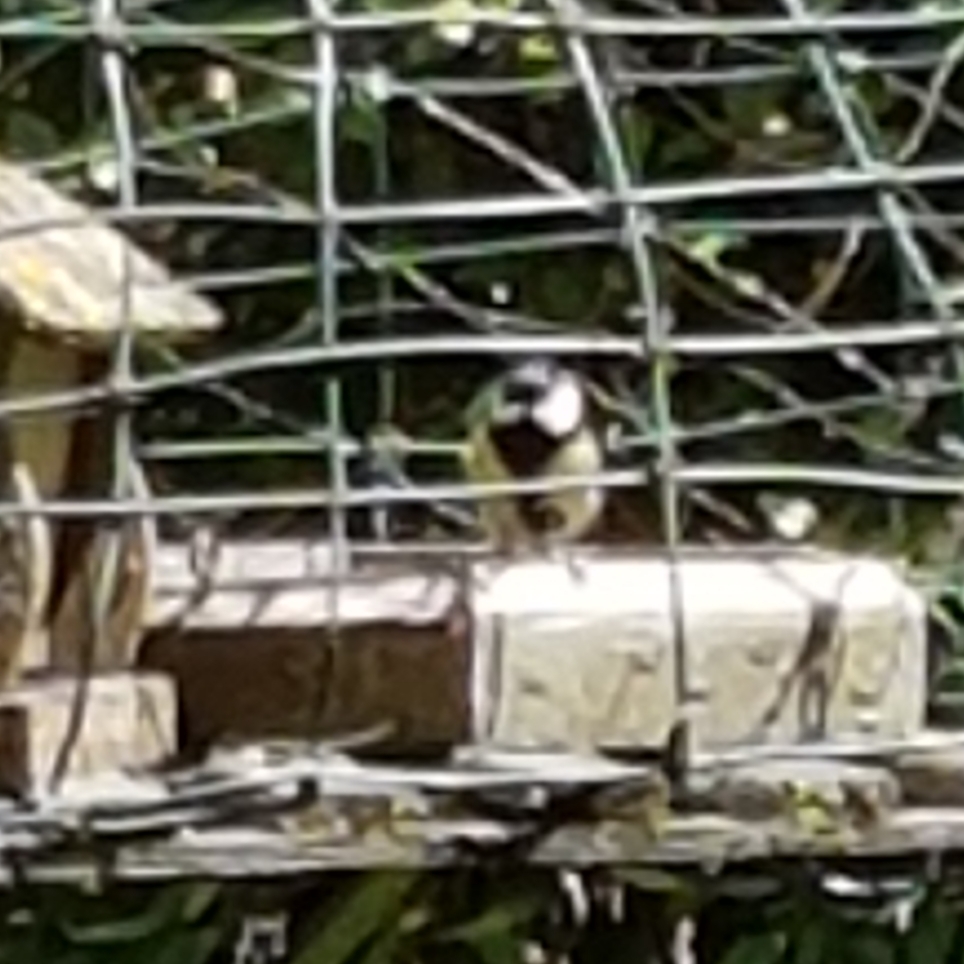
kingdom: Animalia
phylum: Chordata
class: Aves
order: Passeriformes
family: Paridae
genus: Parus
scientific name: Parus major
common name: Great tit
